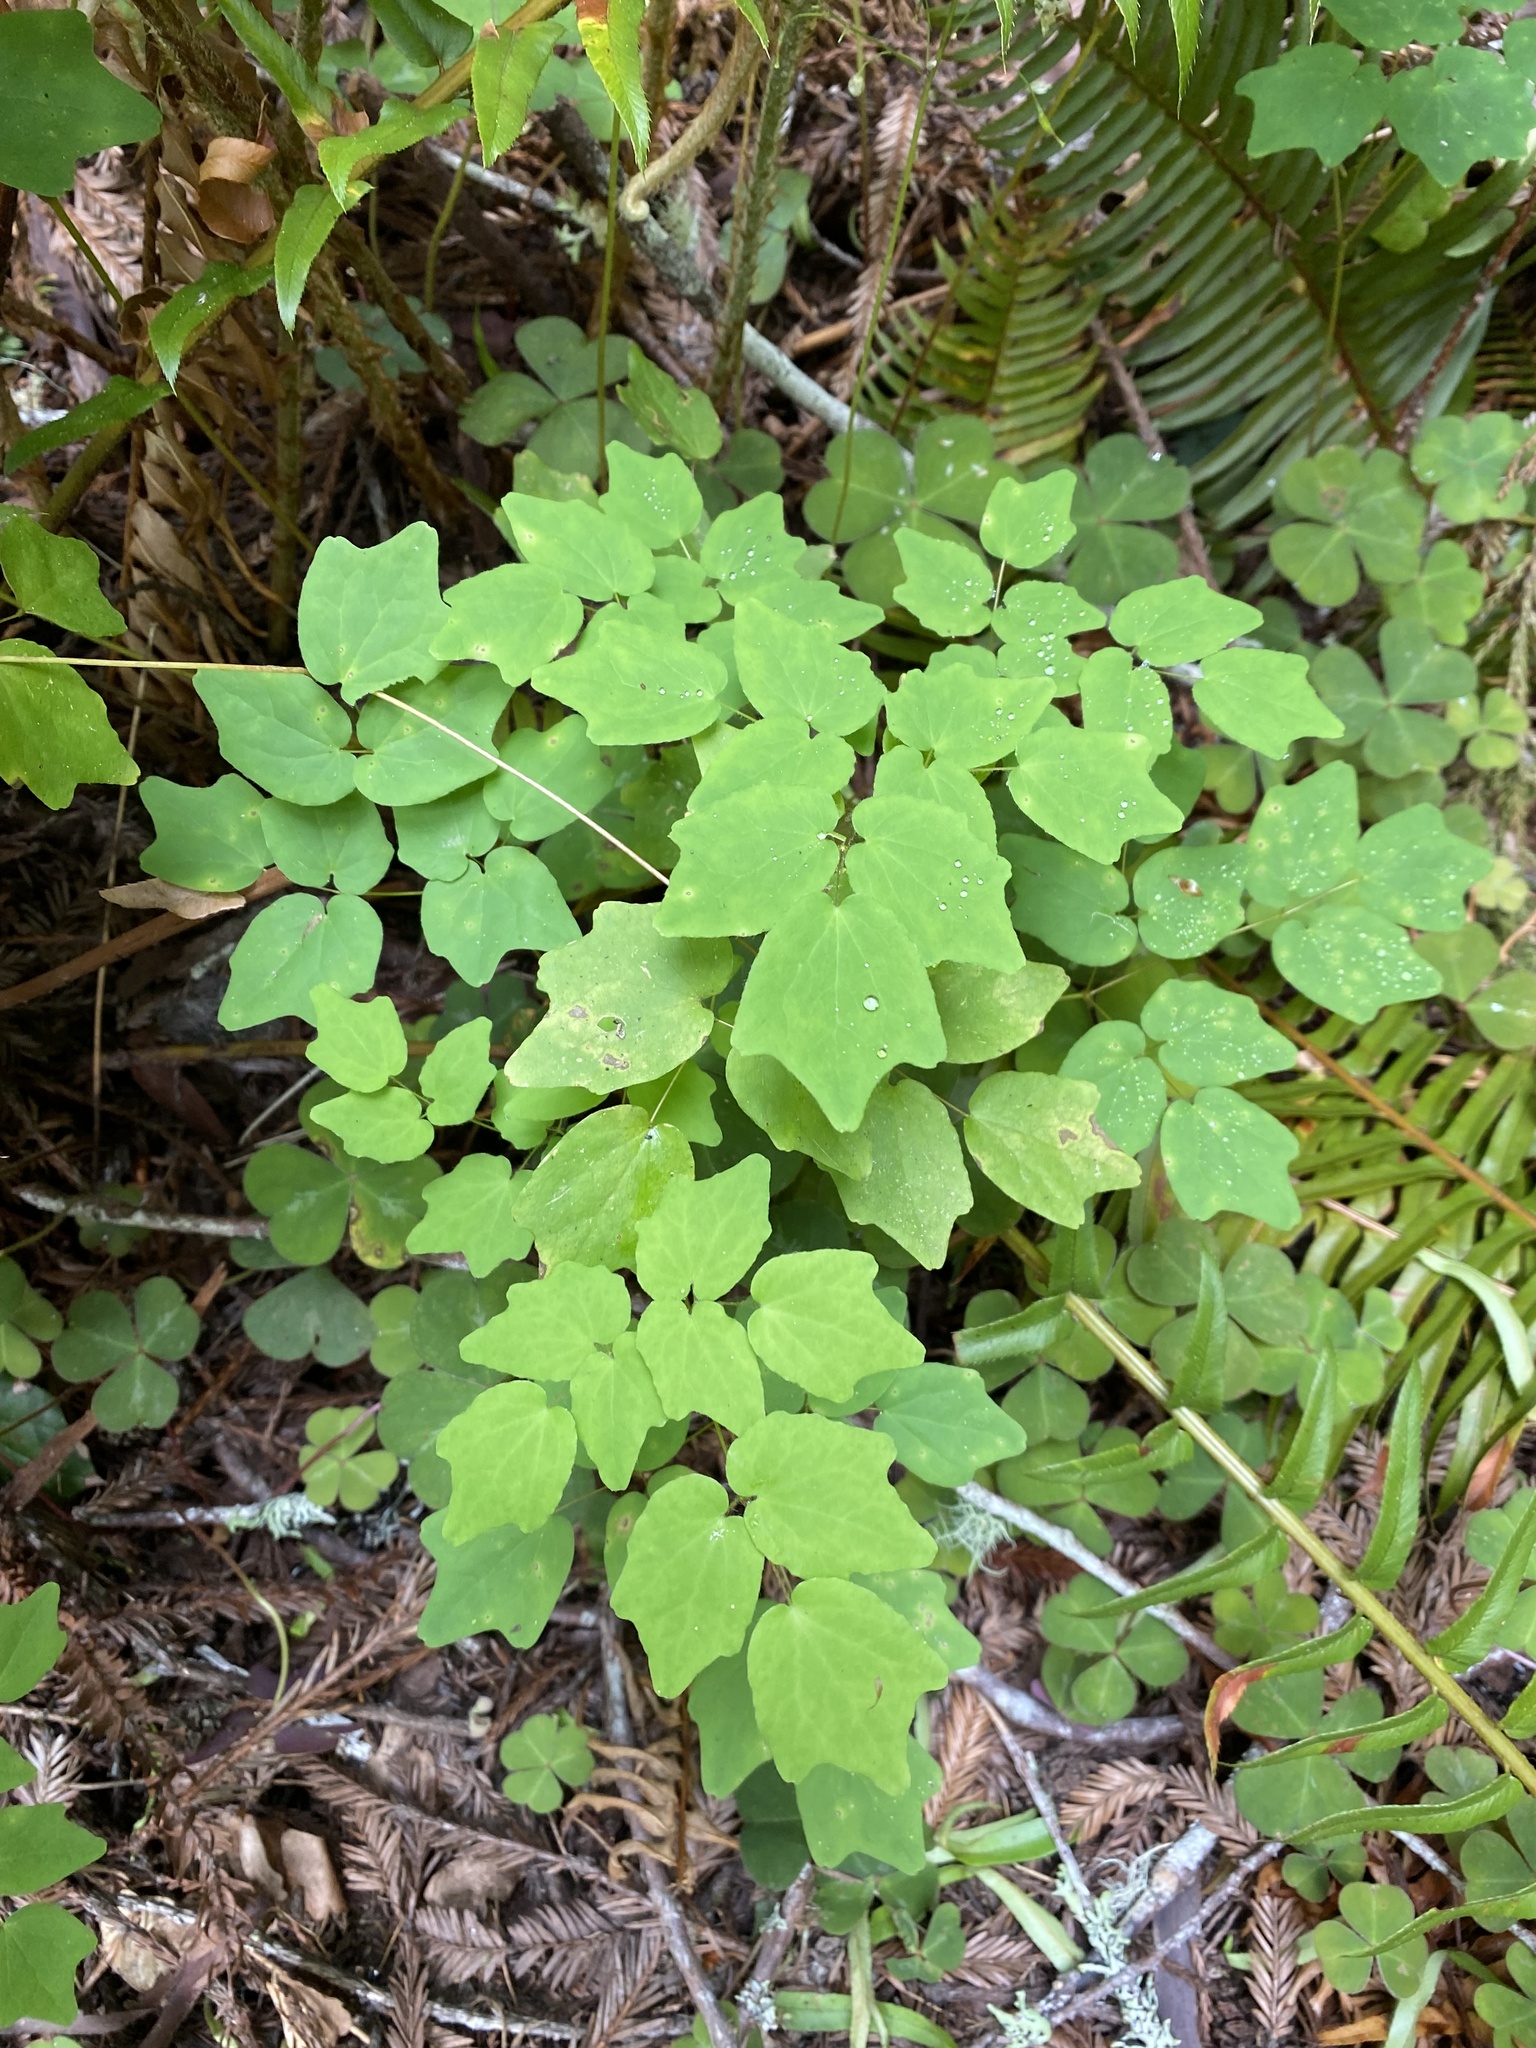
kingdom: Plantae
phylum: Tracheophyta
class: Magnoliopsida
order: Ranunculales
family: Berberidaceae
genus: Vancouveria
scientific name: Vancouveria hexandra
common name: Northern inside-out-flower
